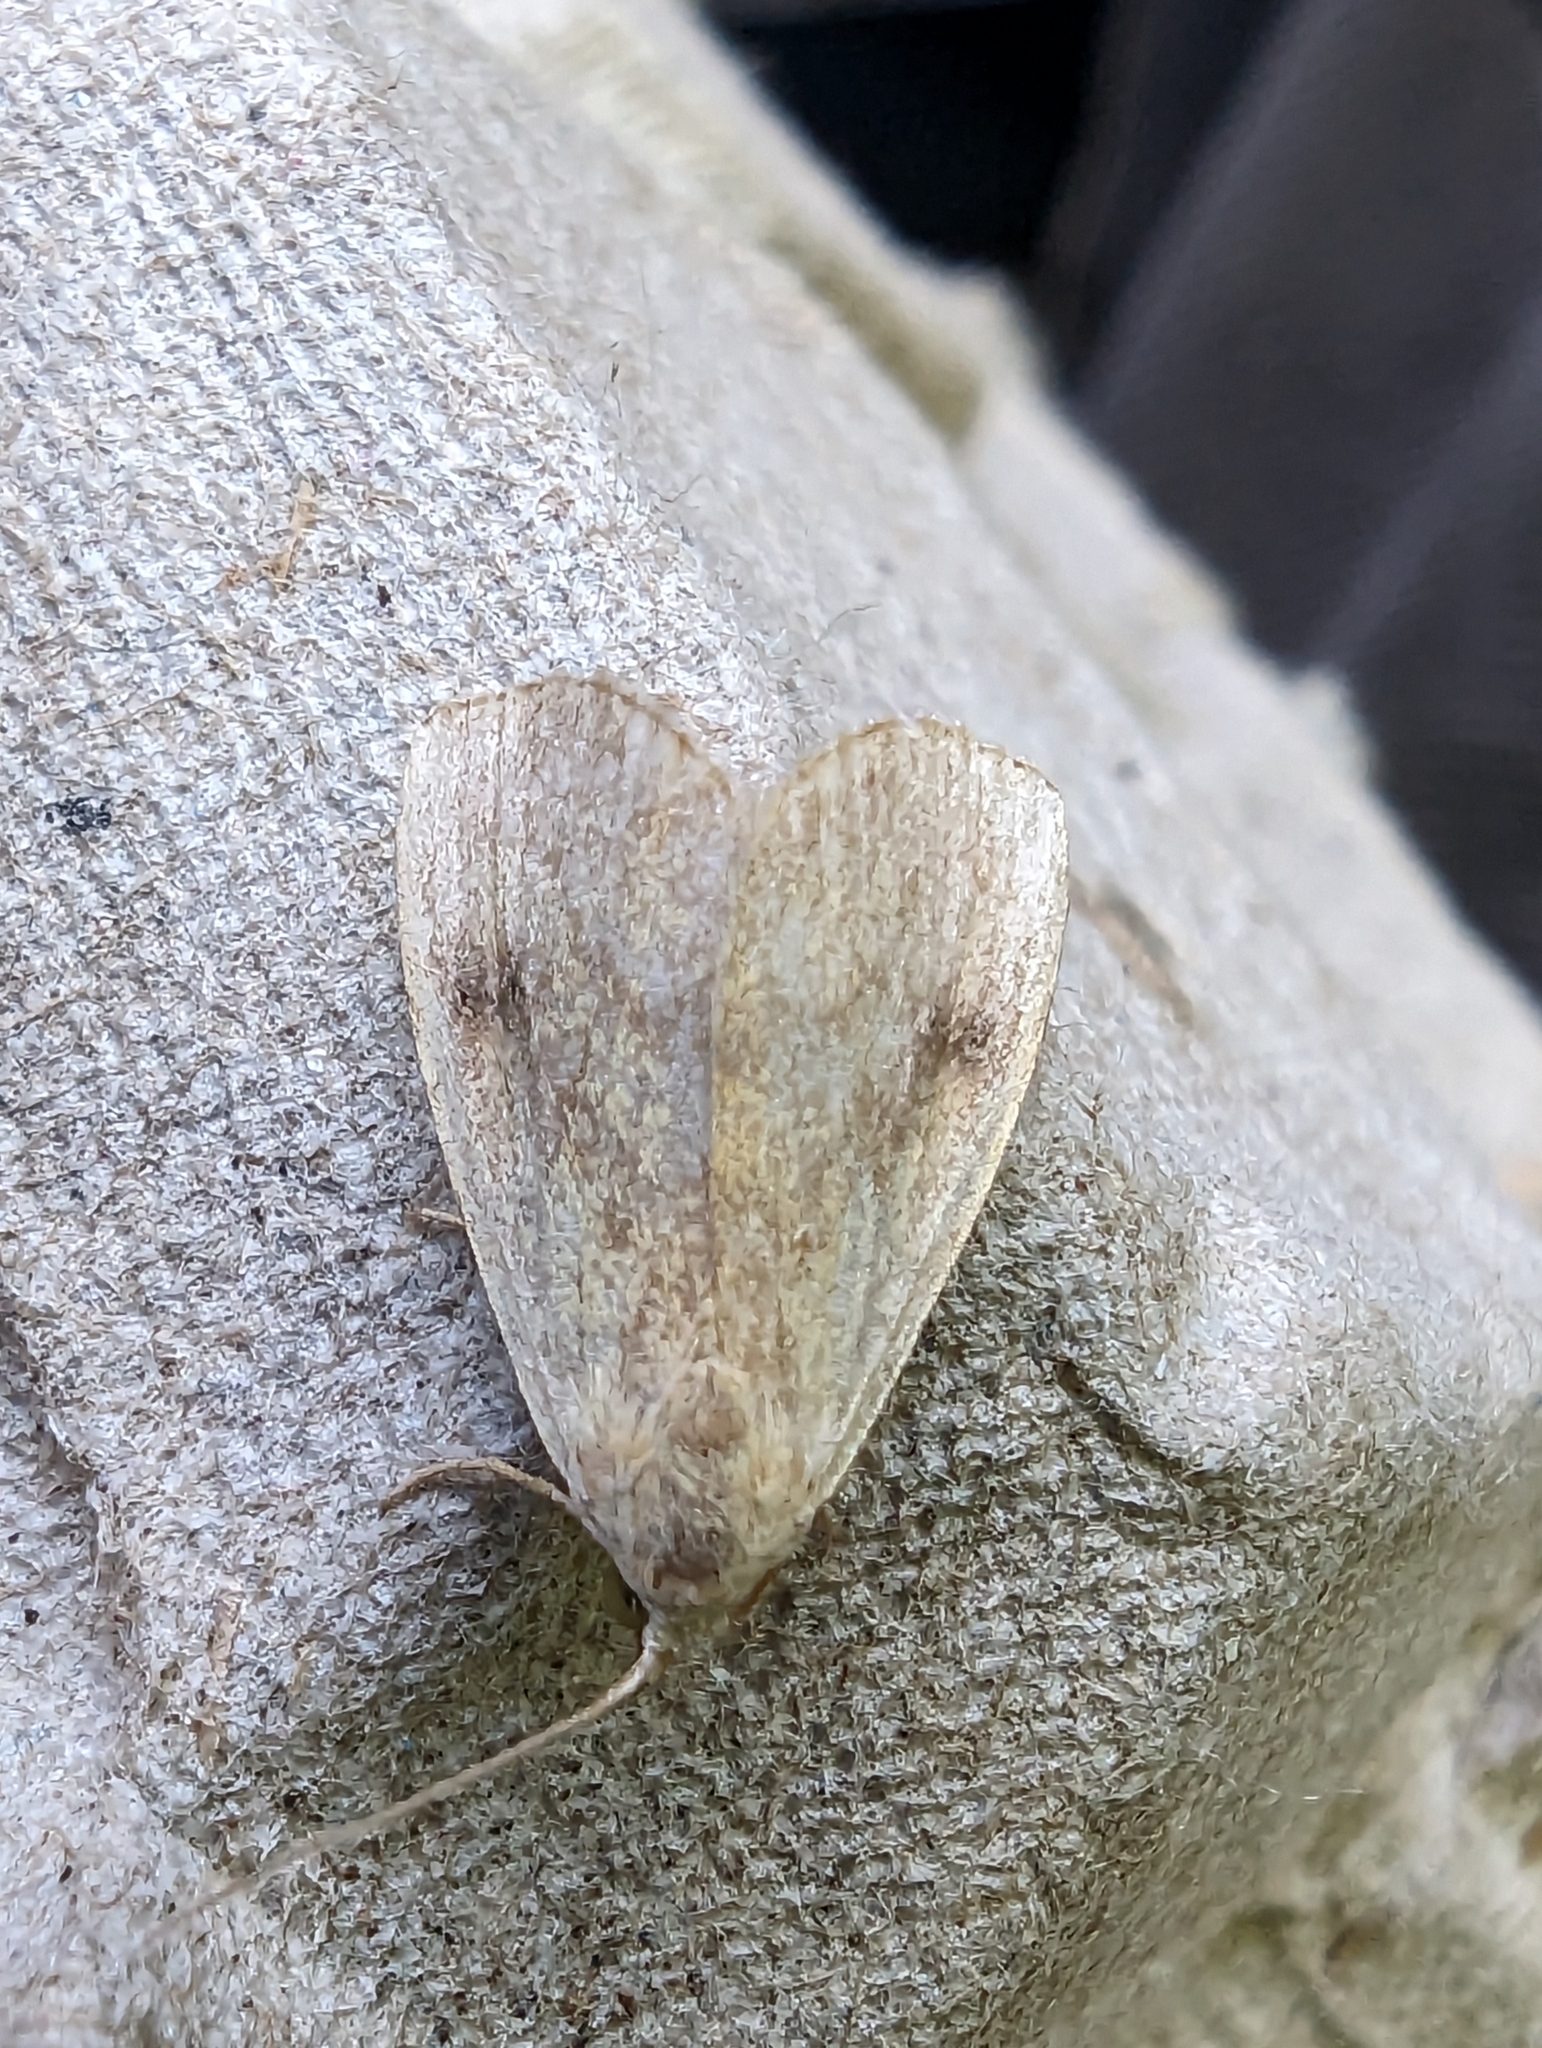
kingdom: Animalia
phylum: Arthropoda
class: Insecta
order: Lepidoptera
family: Erebidae
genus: Rivula
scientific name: Rivula sericealis
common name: Straw dot
